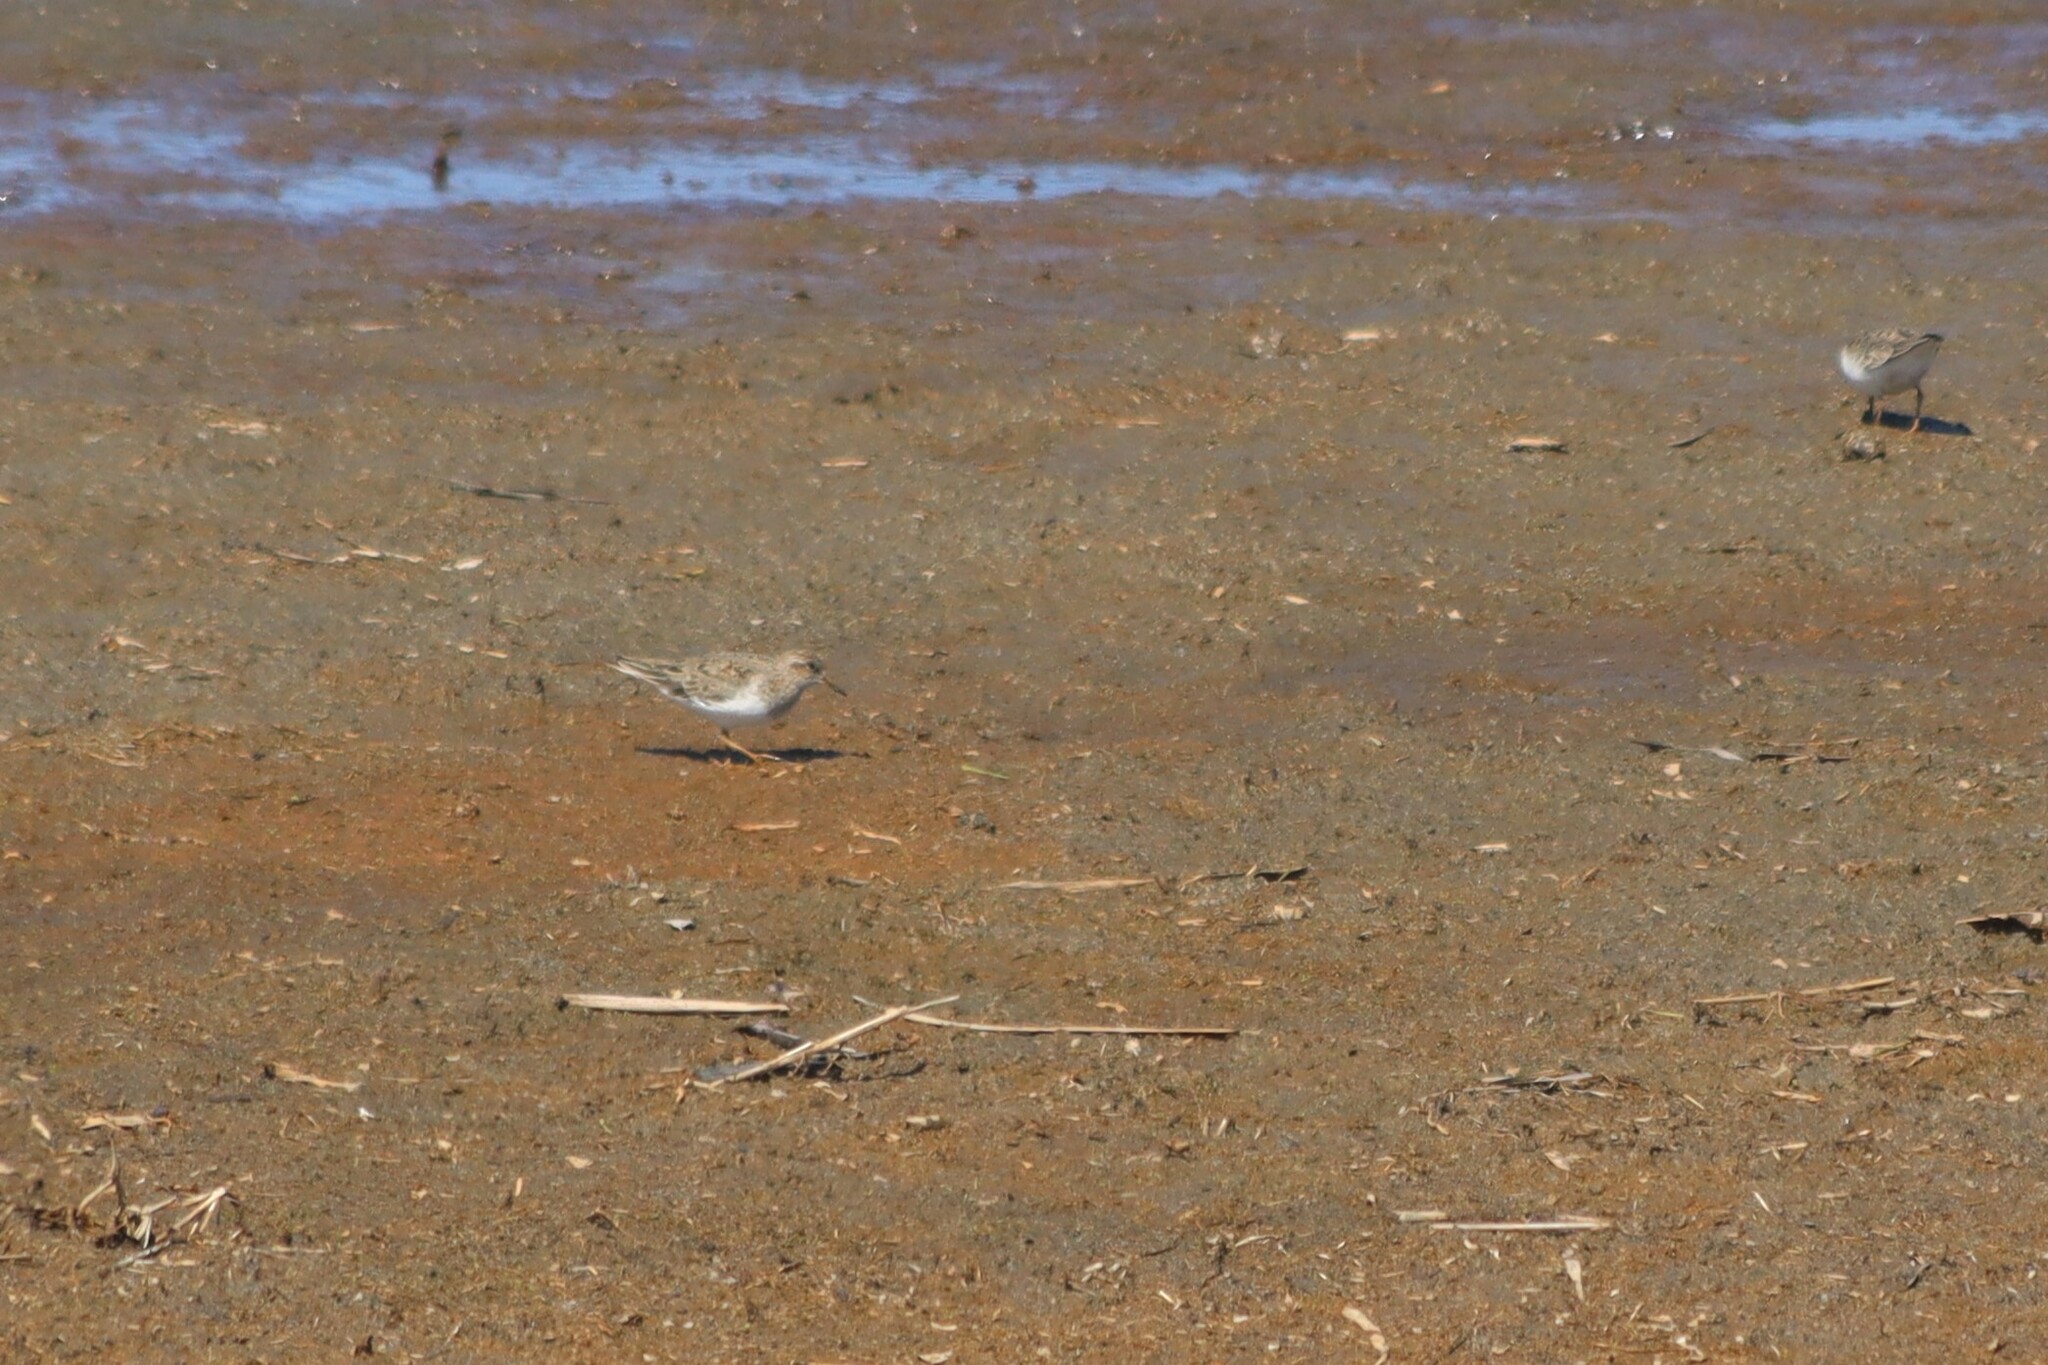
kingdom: Animalia
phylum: Chordata
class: Aves
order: Charadriiformes
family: Scolopacidae
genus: Calidris
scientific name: Calidris temminckii
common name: Temminck's stint
